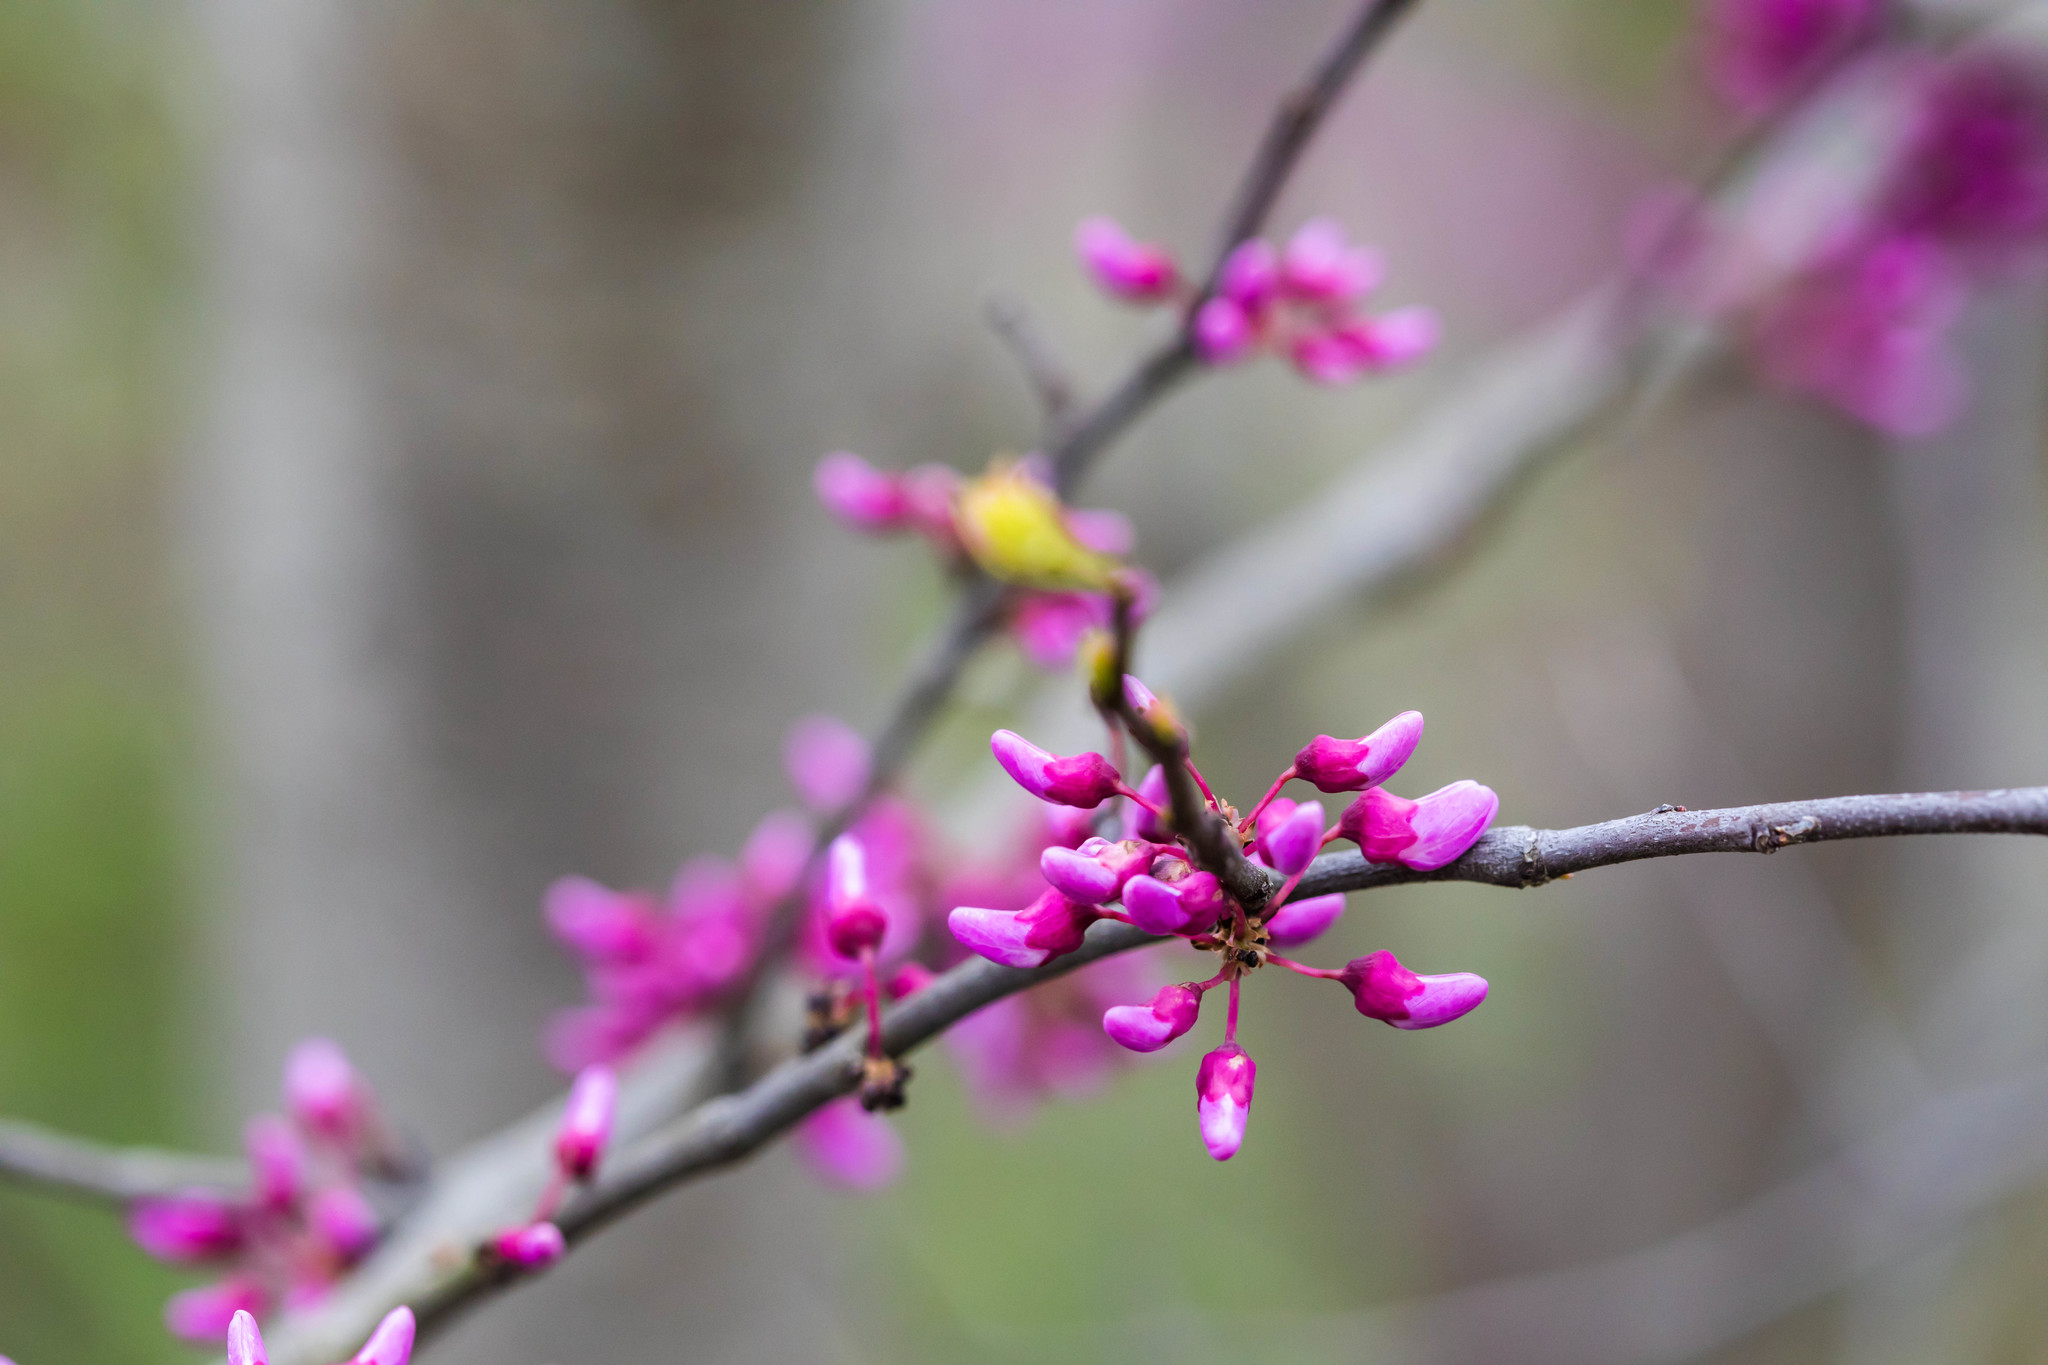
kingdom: Plantae
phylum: Tracheophyta
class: Magnoliopsida
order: Fabales
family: Fabaceae
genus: Cercis
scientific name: Cercis canadensis
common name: Eastern redbud
